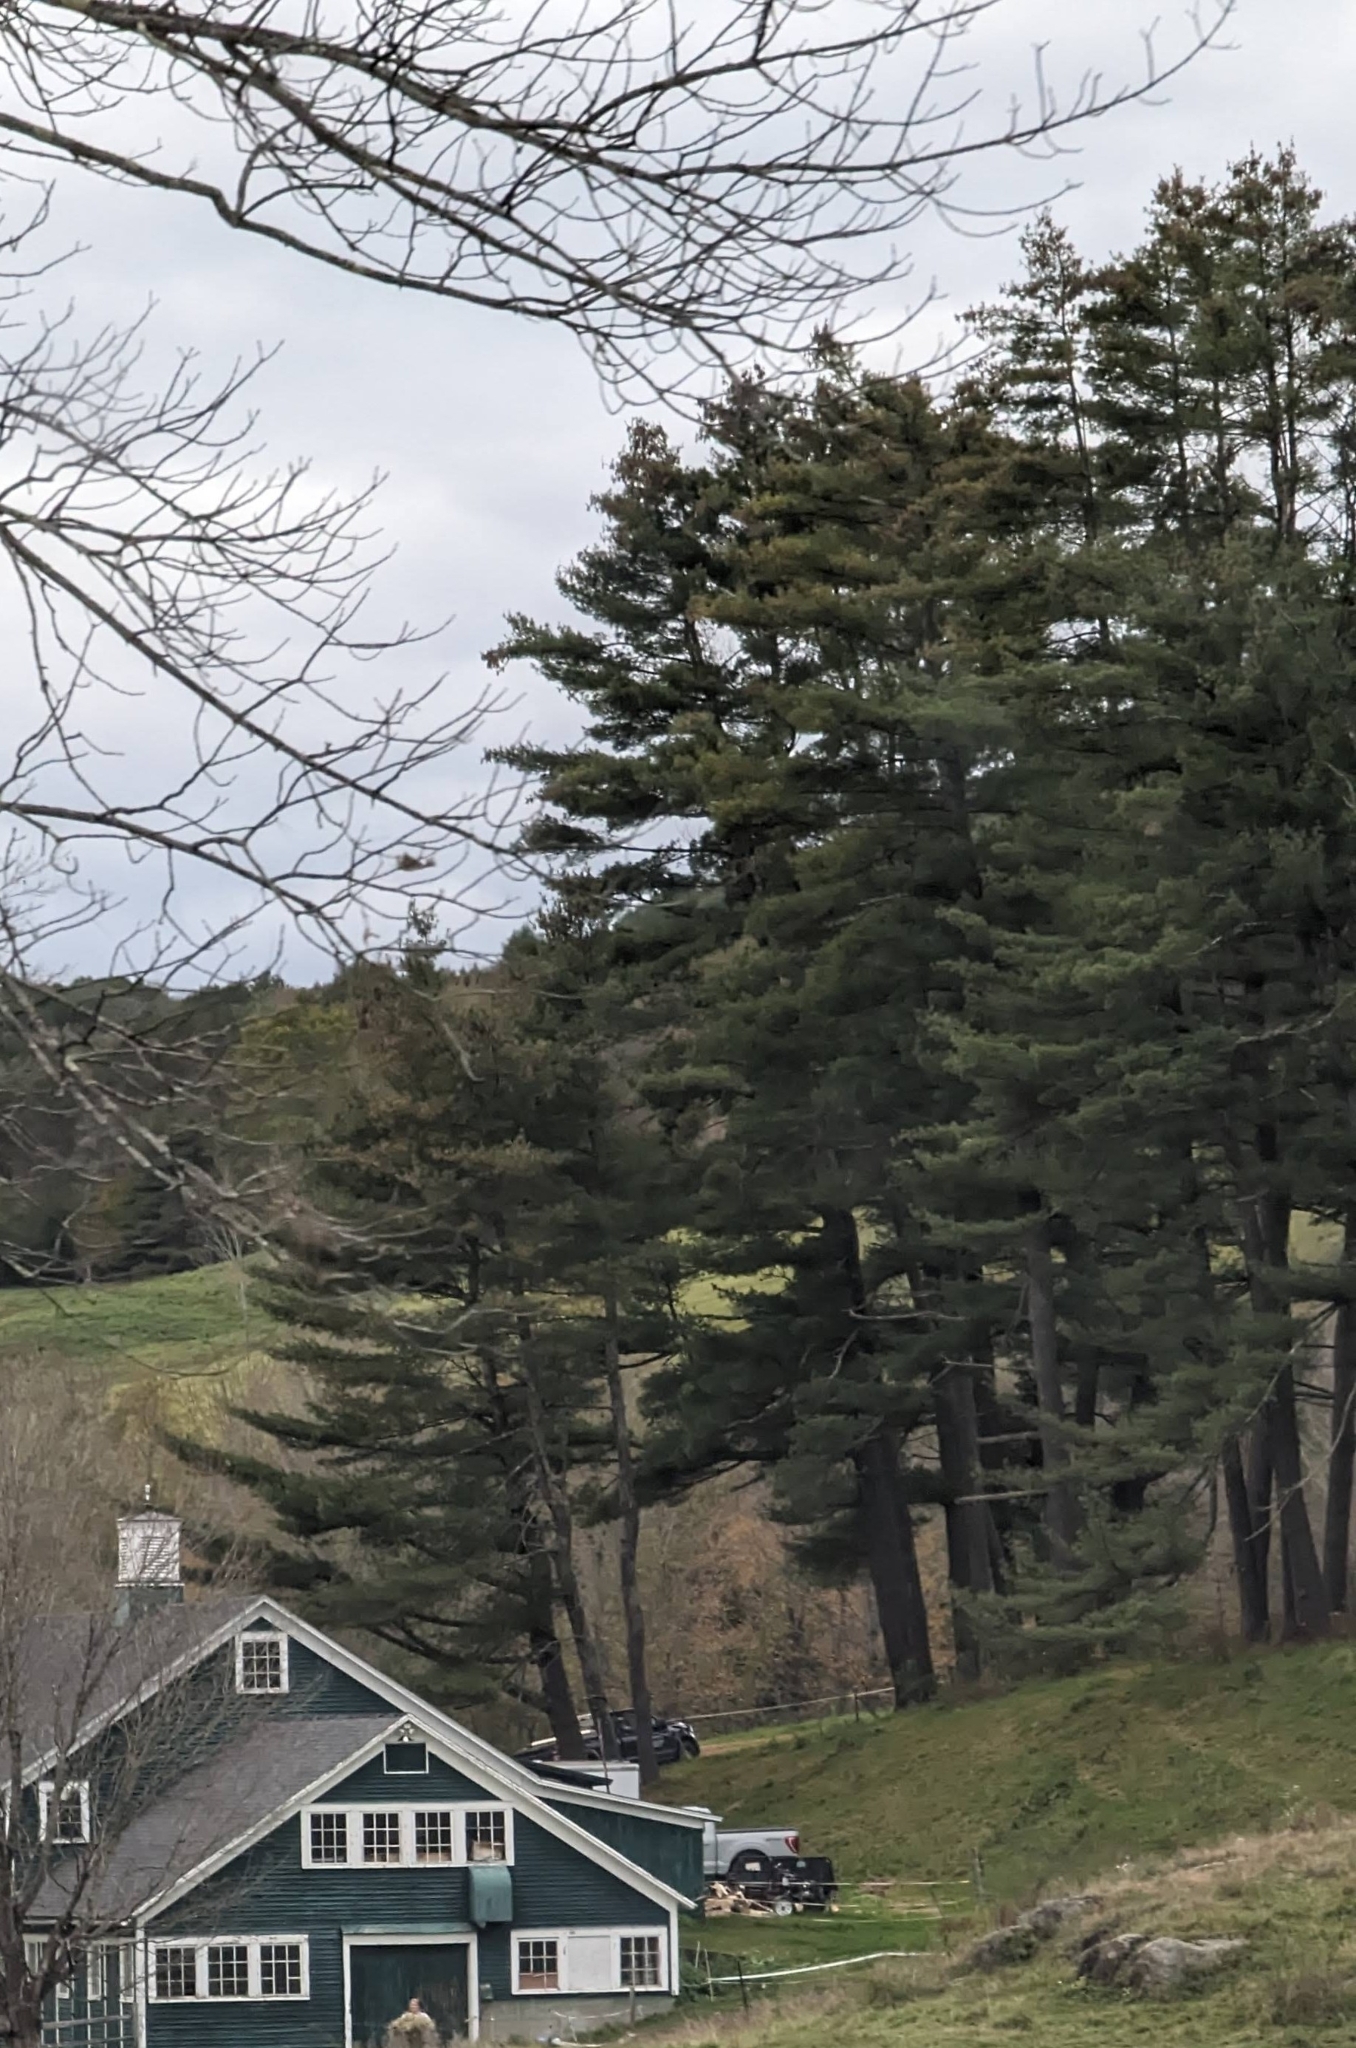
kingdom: Plantae
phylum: Tracheophyta
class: Pinopsida
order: Pinales
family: Pinaceae
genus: Pinus
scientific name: Pinus strobus
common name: Weymouth pine
